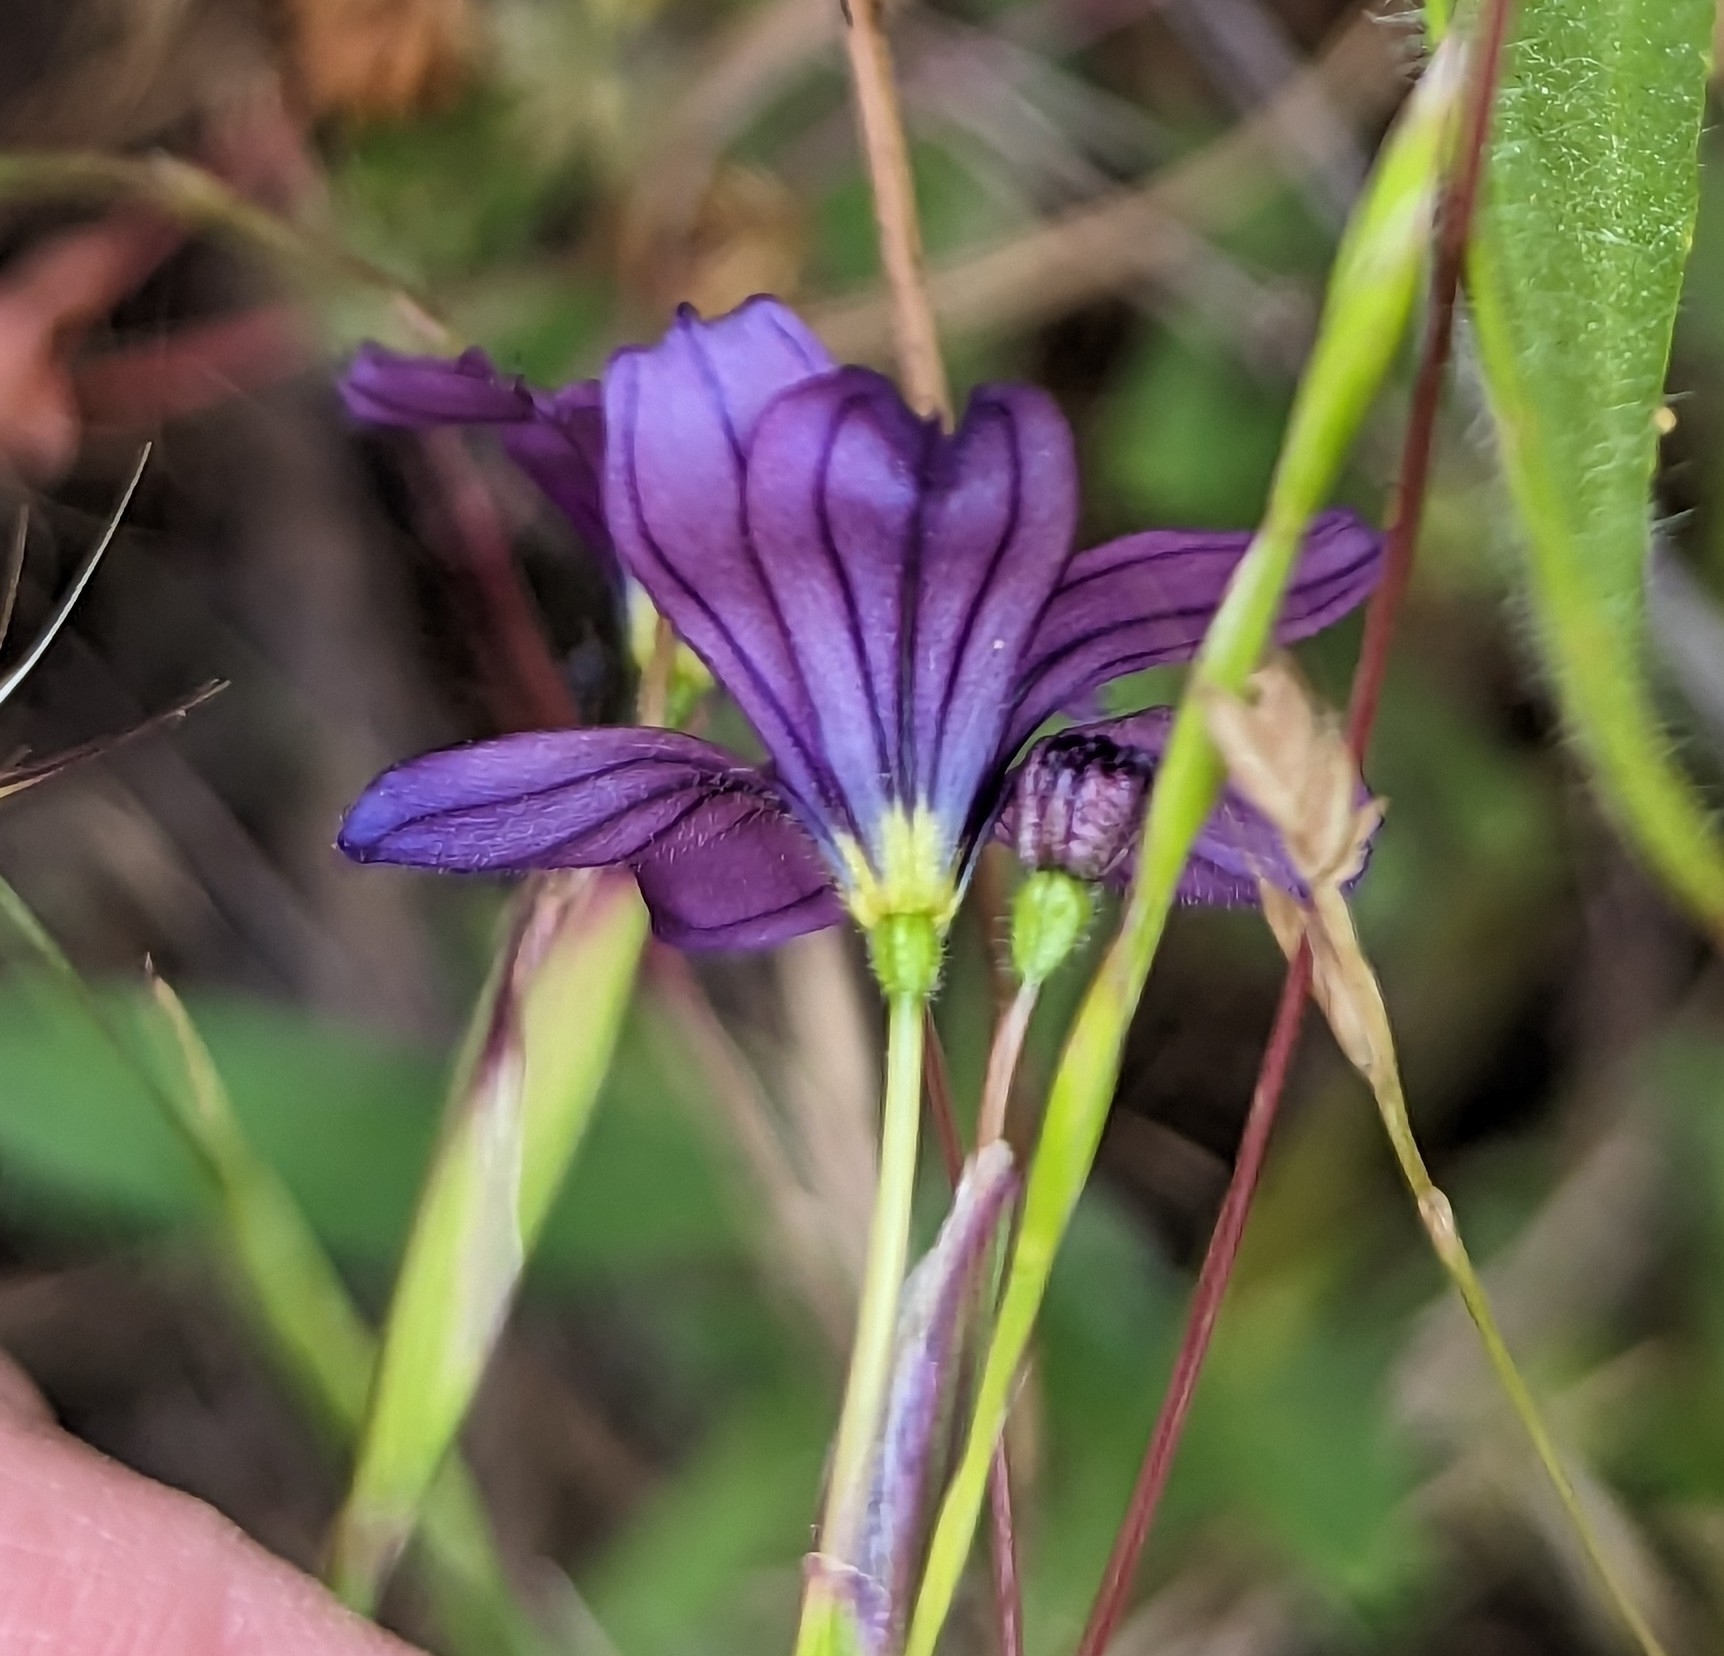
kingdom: Plantae
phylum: Tracheophyta
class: Liliopsida
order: Asparagales
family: Iridaceae
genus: Sisyrinchium
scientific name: Sisyrinchium bellum
